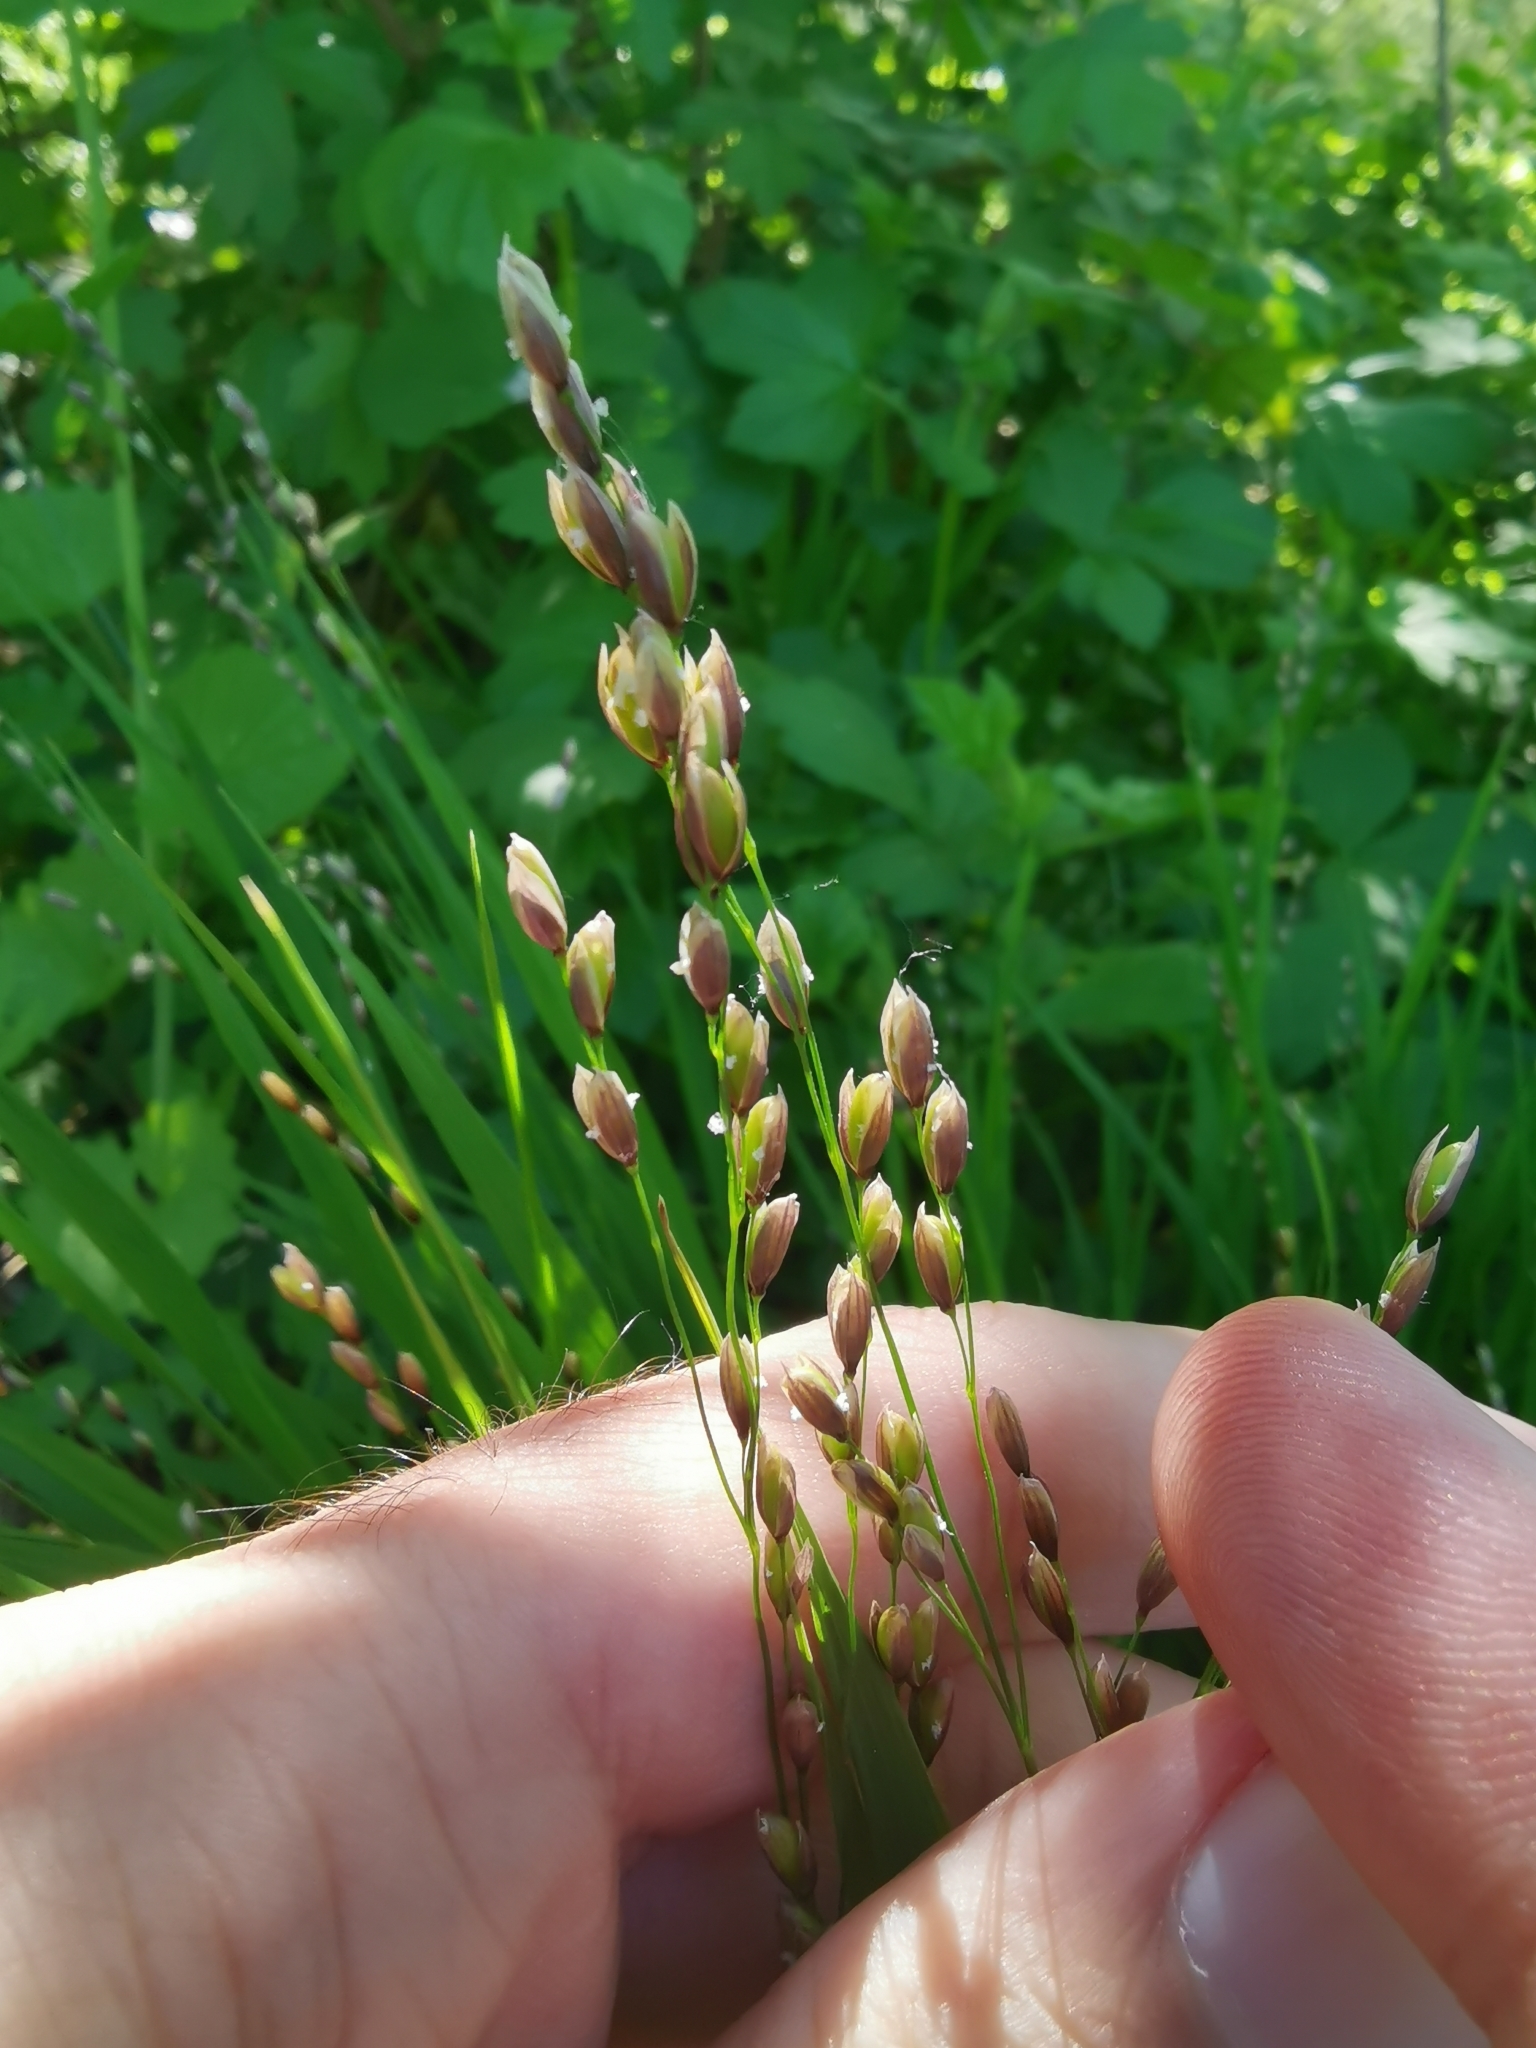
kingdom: Plantae
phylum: Tracheophyta
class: Liliopsida
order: Poales
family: Poaceae
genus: Melica
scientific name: Melica uniflora
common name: Wood melick
